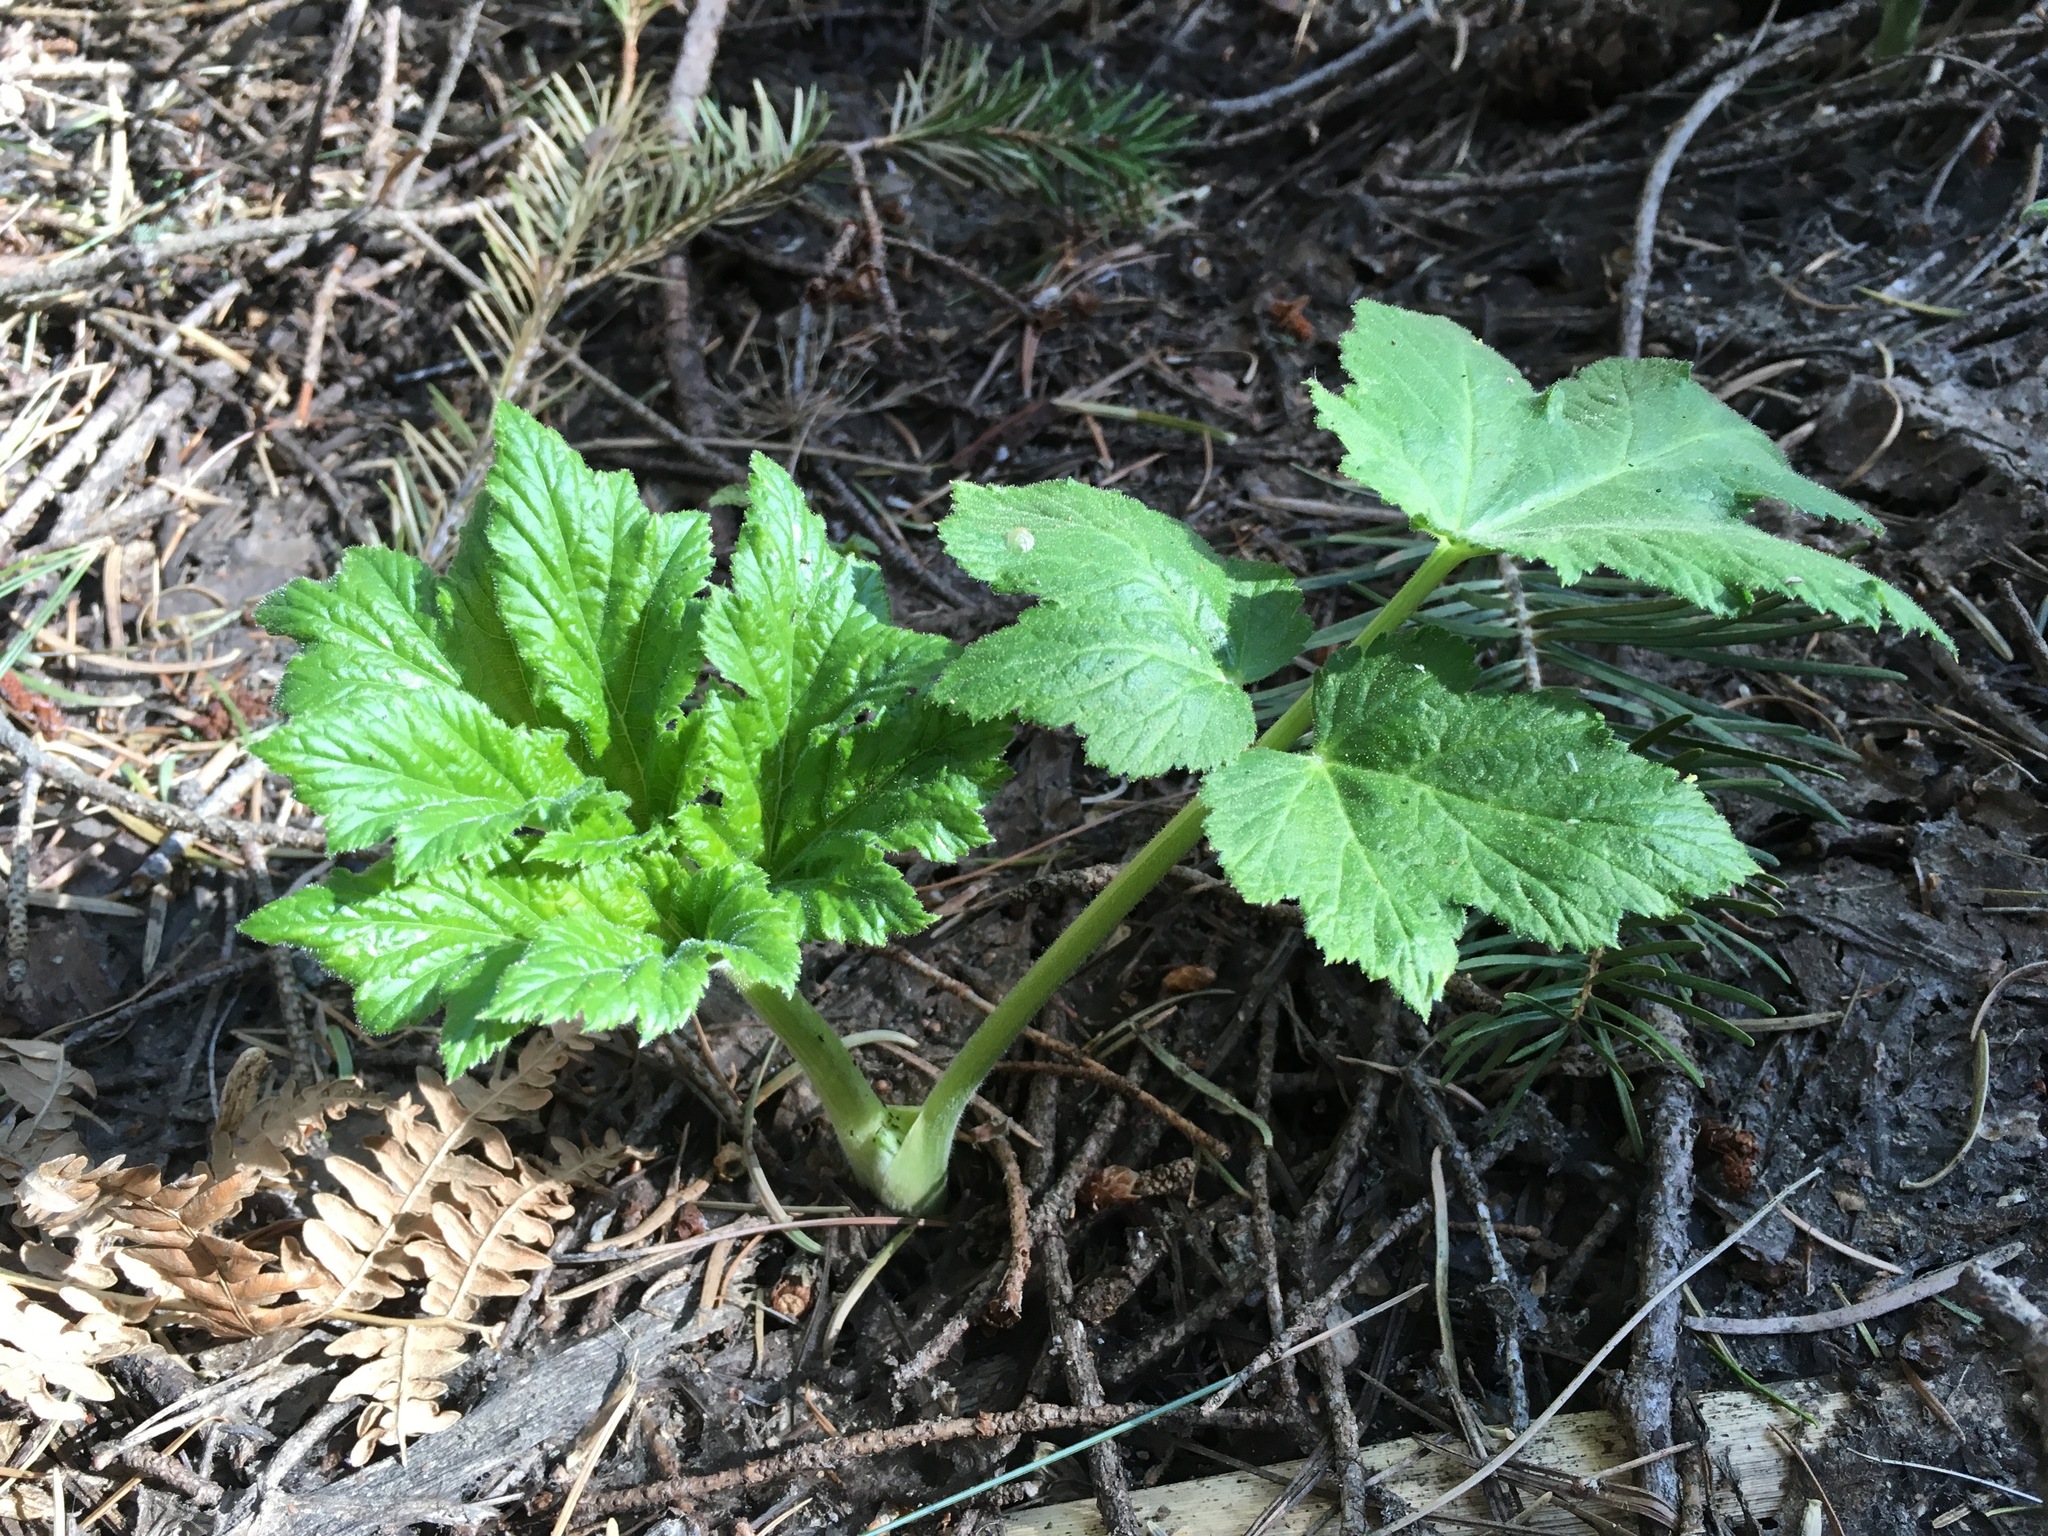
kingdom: Plantae
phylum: Tracheophyta
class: Magnoliopsida
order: Apiales
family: Apiaceae
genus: Heracleum
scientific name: Heracleum maximum
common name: American cow parsnip
